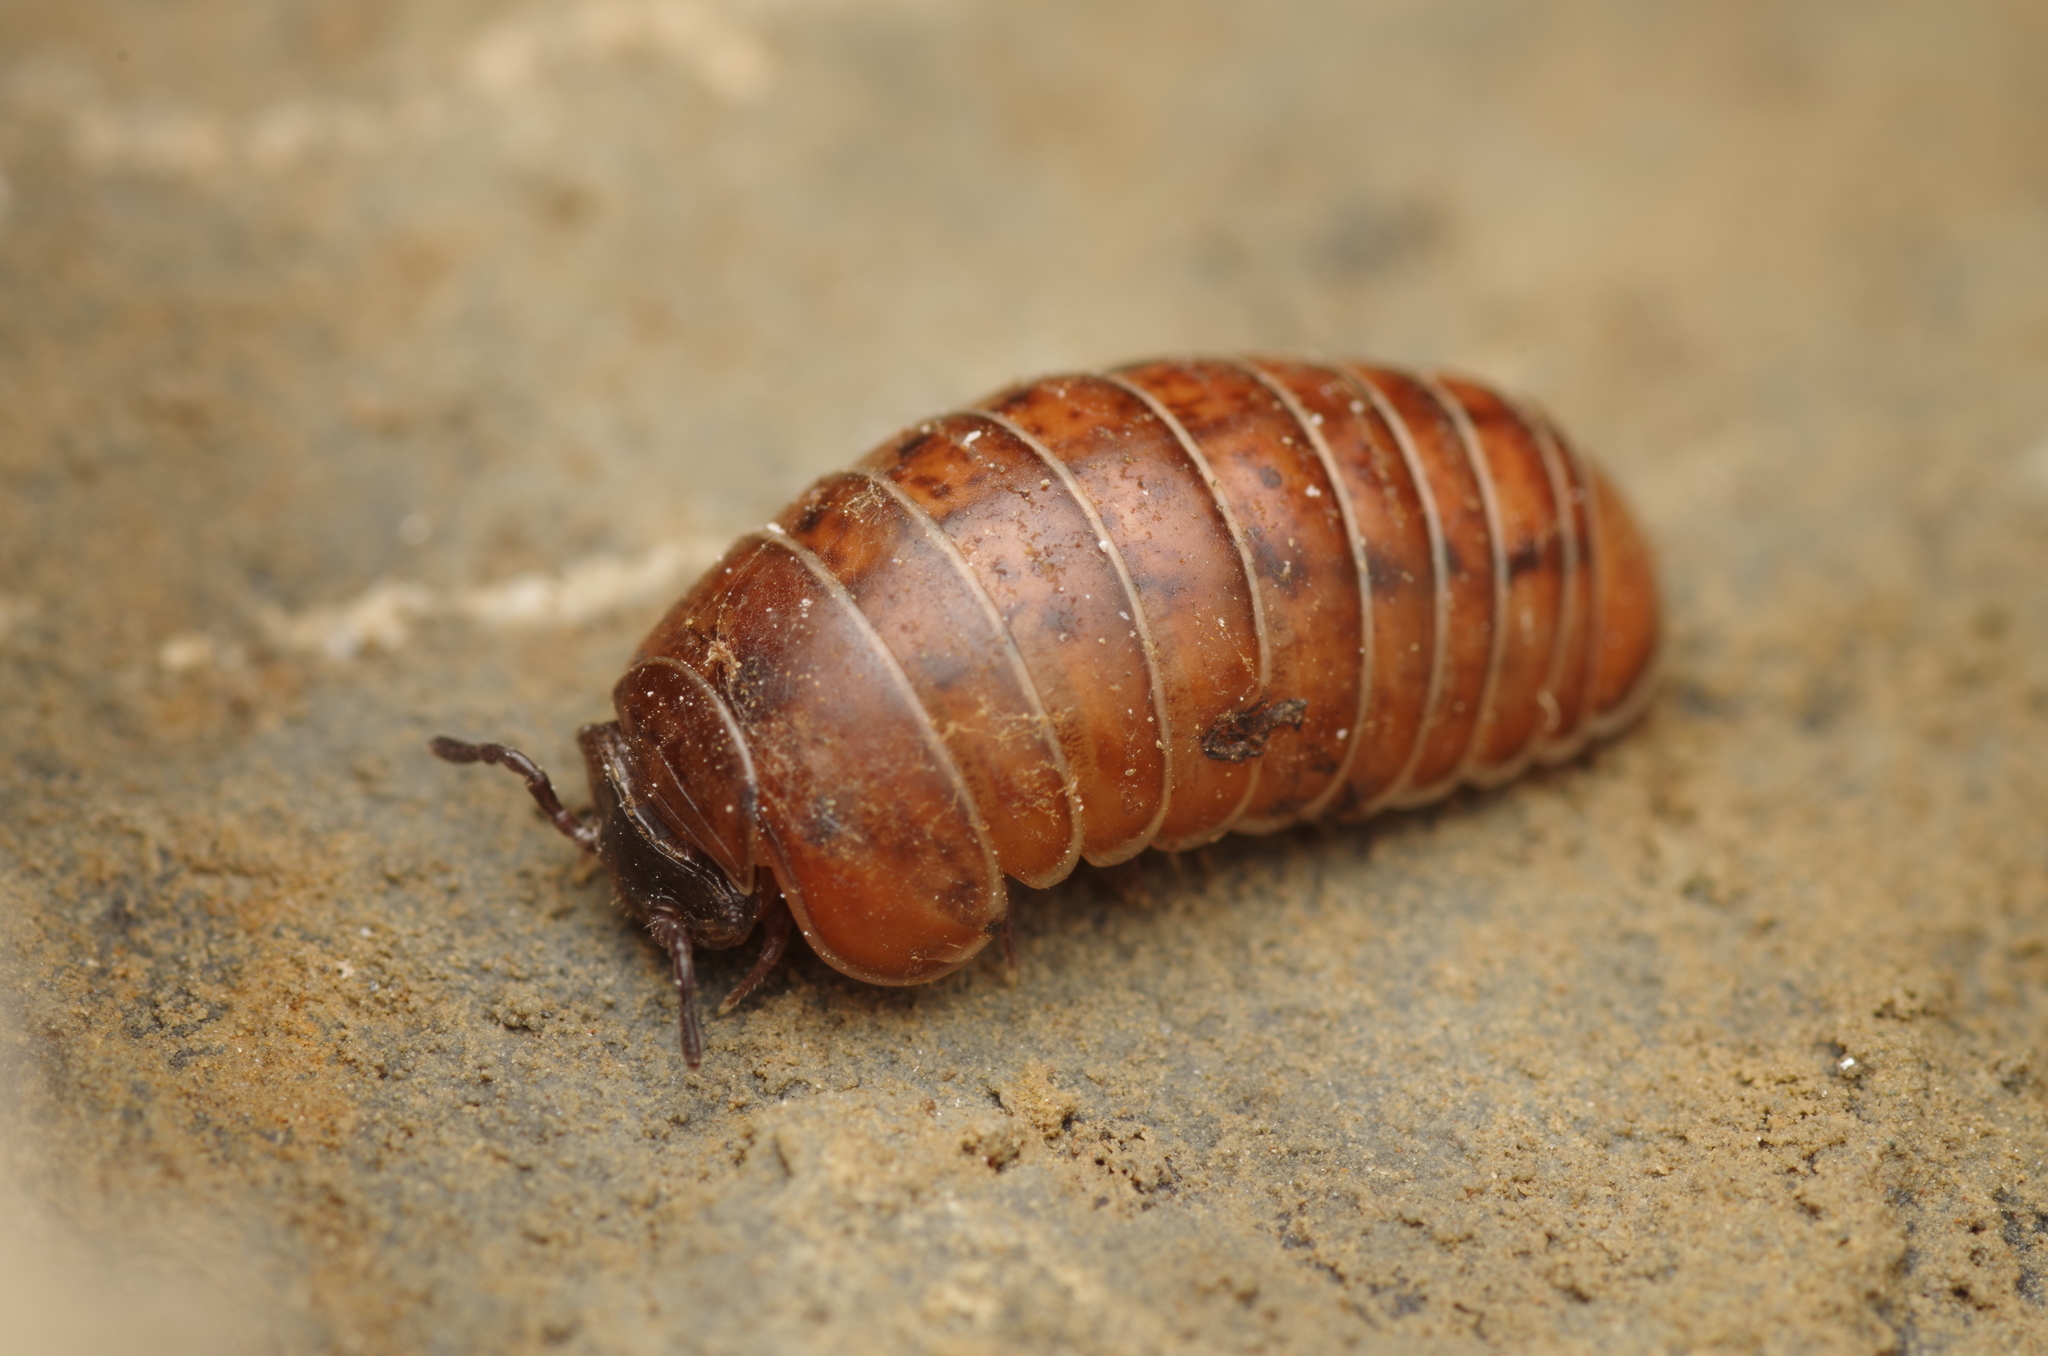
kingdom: Animalia
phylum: Arthropoda
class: Diplopoda
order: Glomerida
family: Protoglomeridae
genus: Protoglomeris
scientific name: Protoglomeris vasconica
